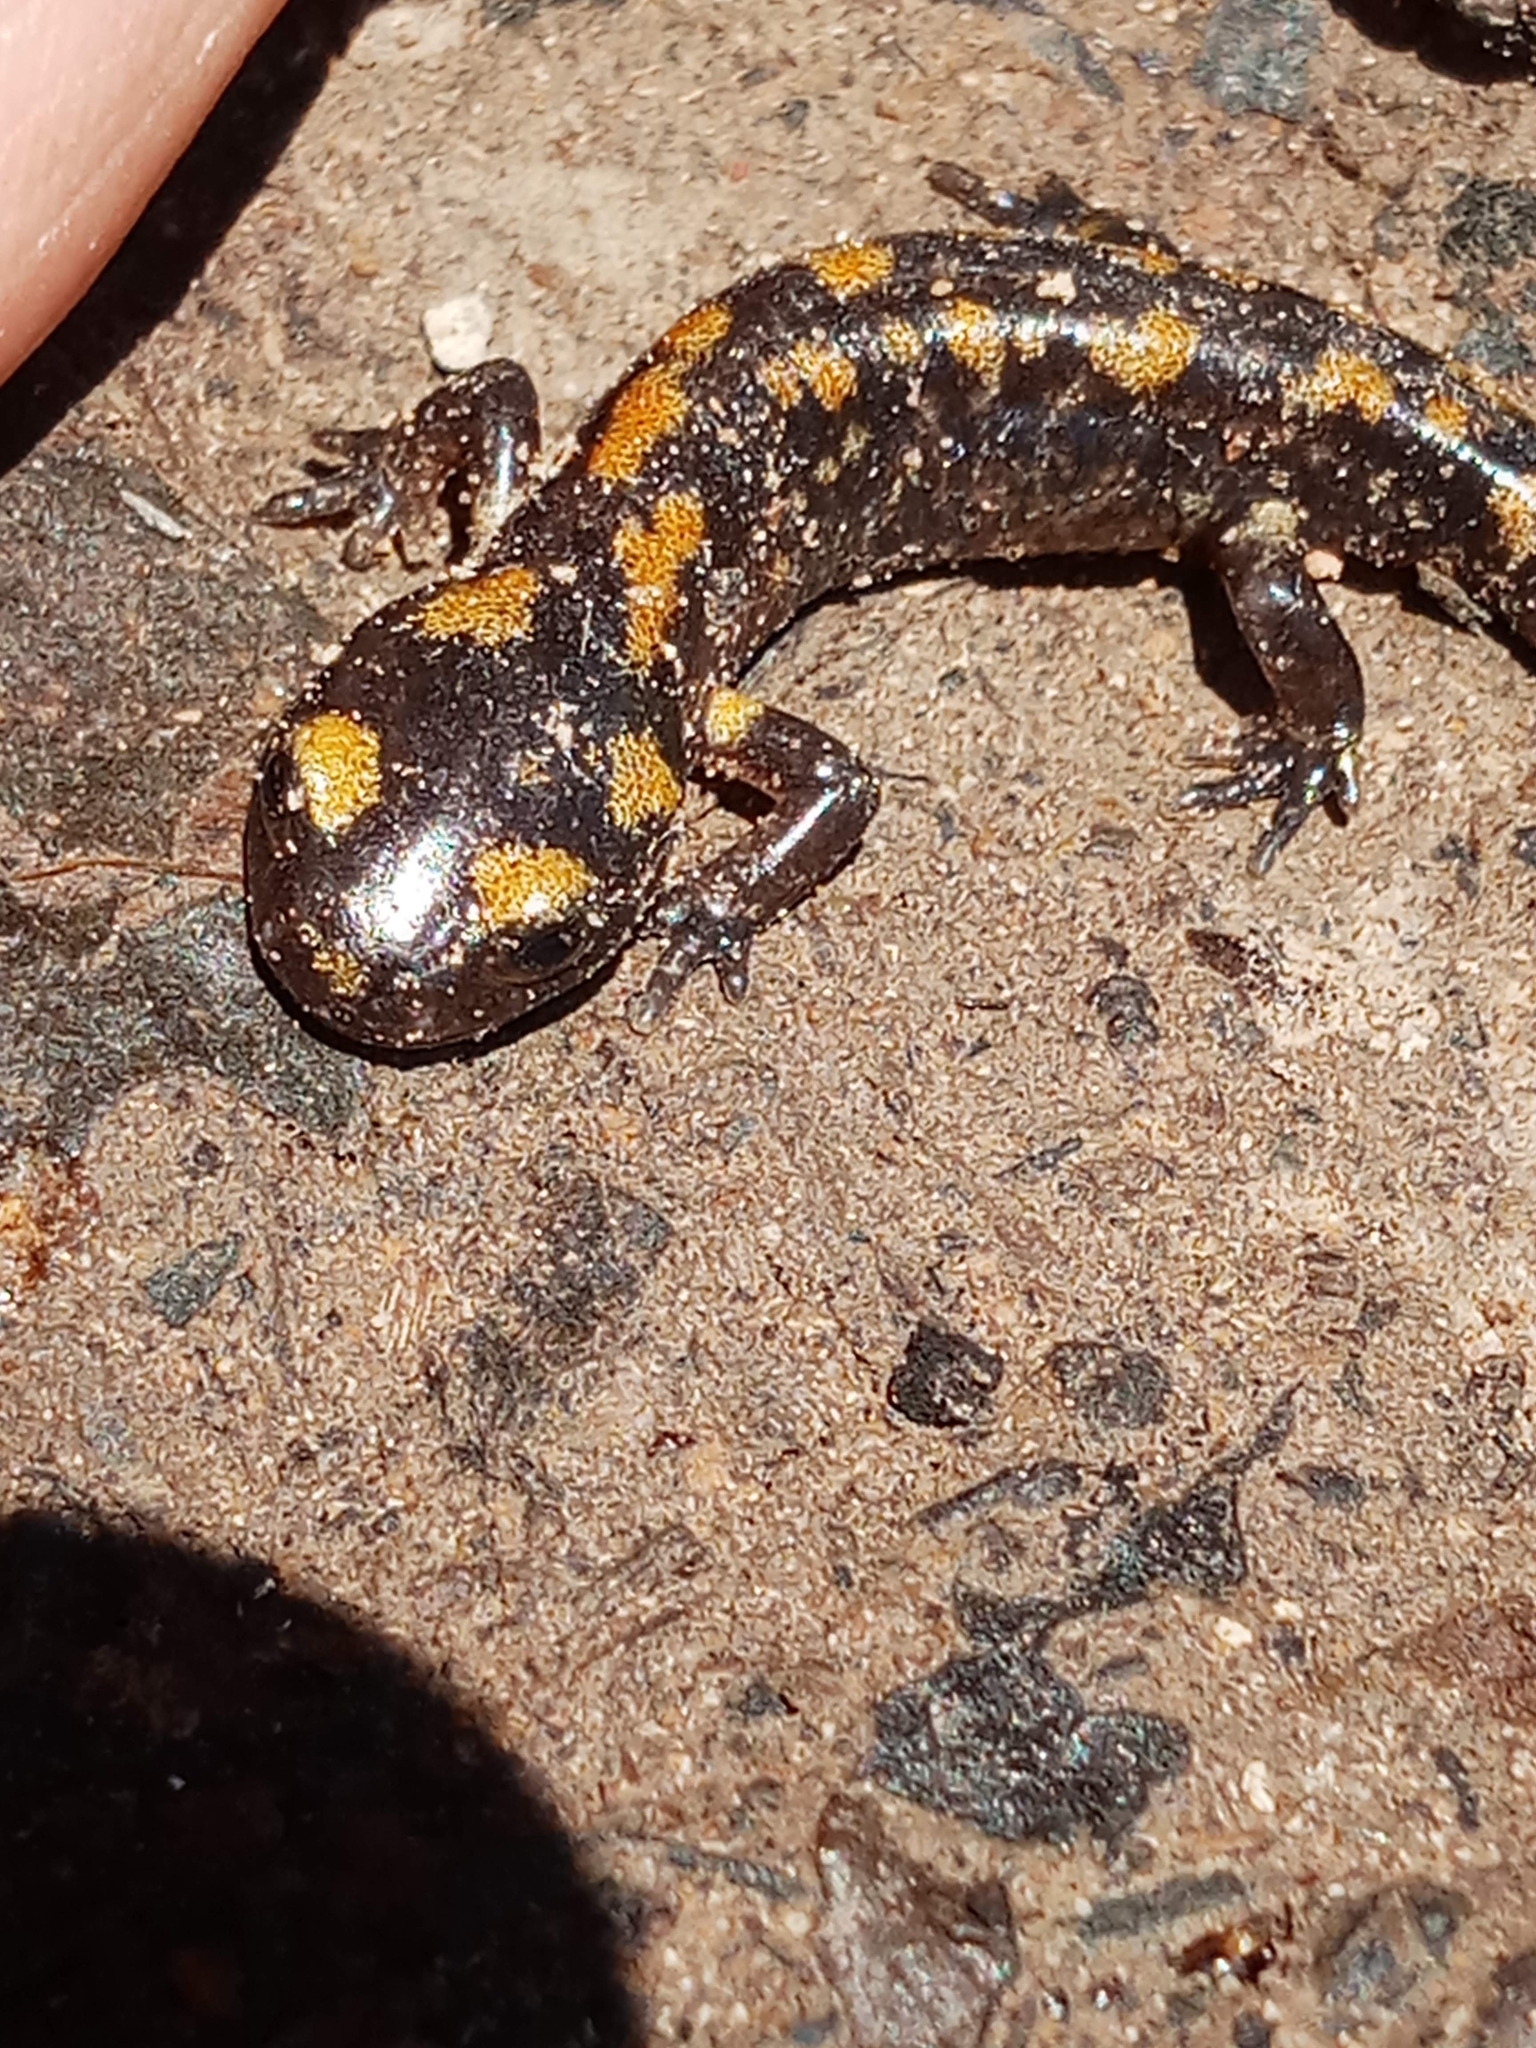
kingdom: Animalia
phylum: Chordata
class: Amphibia
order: Caudata
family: Salamandridae
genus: Salamandra
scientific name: Salamandra algira
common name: North african fire salamander
